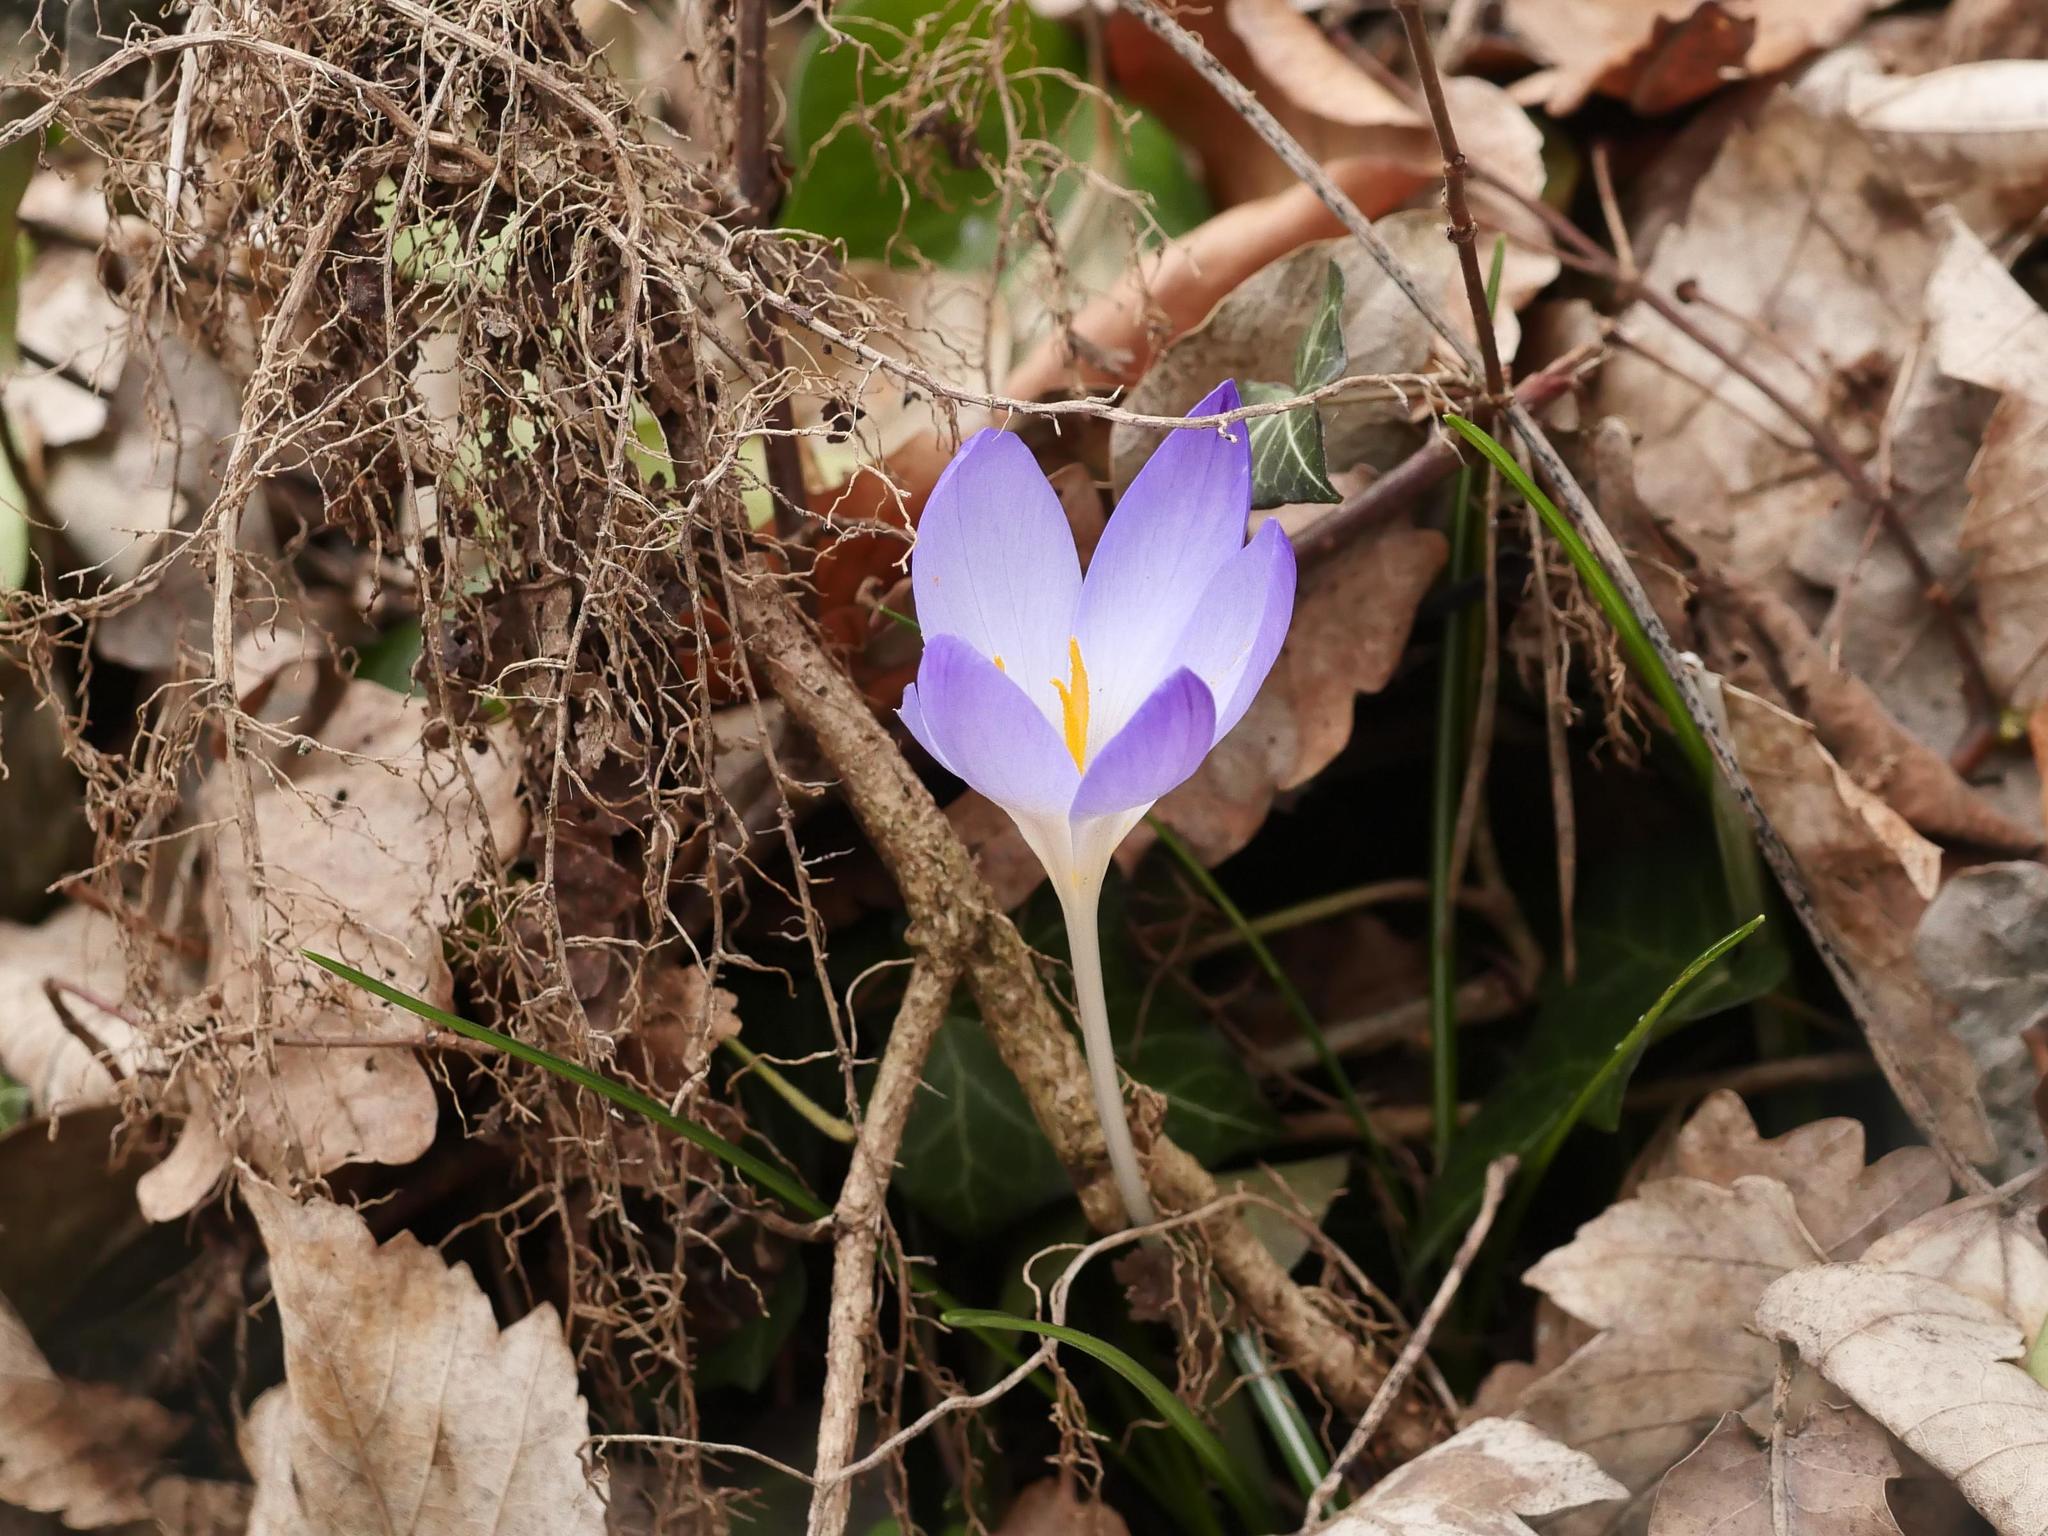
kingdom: Plantae
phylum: Tracheophyta
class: Liliopsida
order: Asparagales
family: Iridaceae
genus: Crocus
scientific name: Crocus tommasinianus
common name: Early crocus
